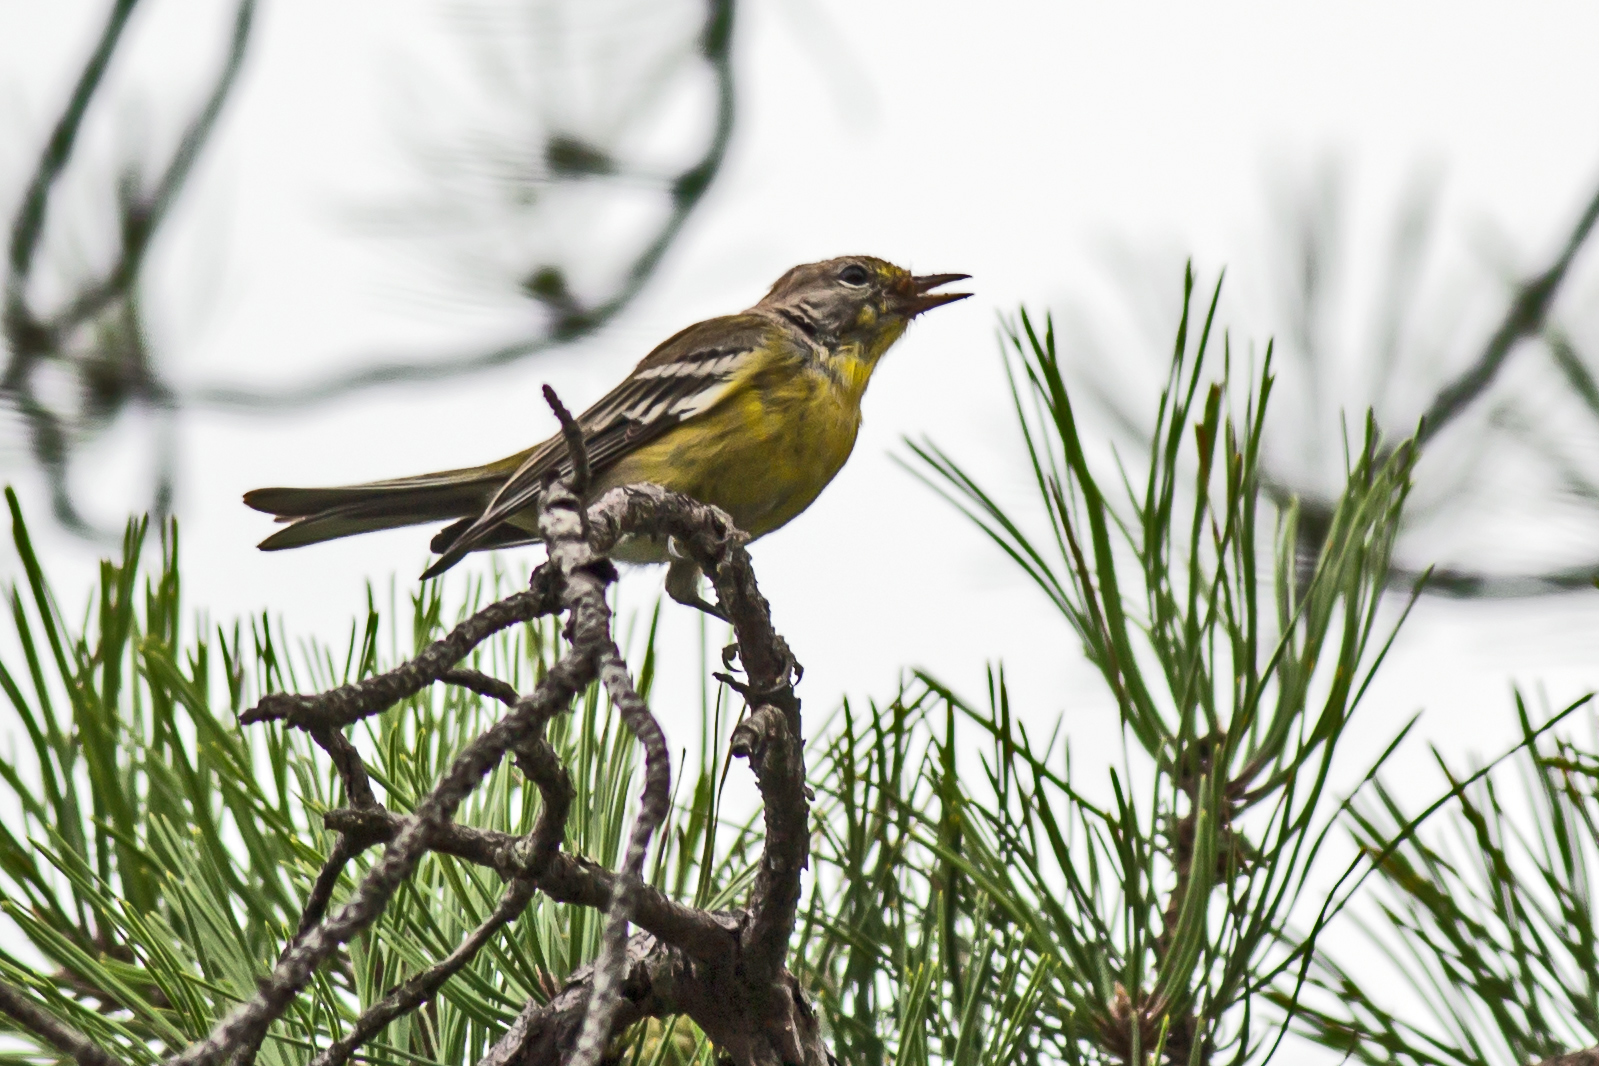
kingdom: Animalia
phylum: Chordata
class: Aves
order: Passeriformes
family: Parulidae
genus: Setophaga
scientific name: Setophaga pinus
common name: Pine warbler
